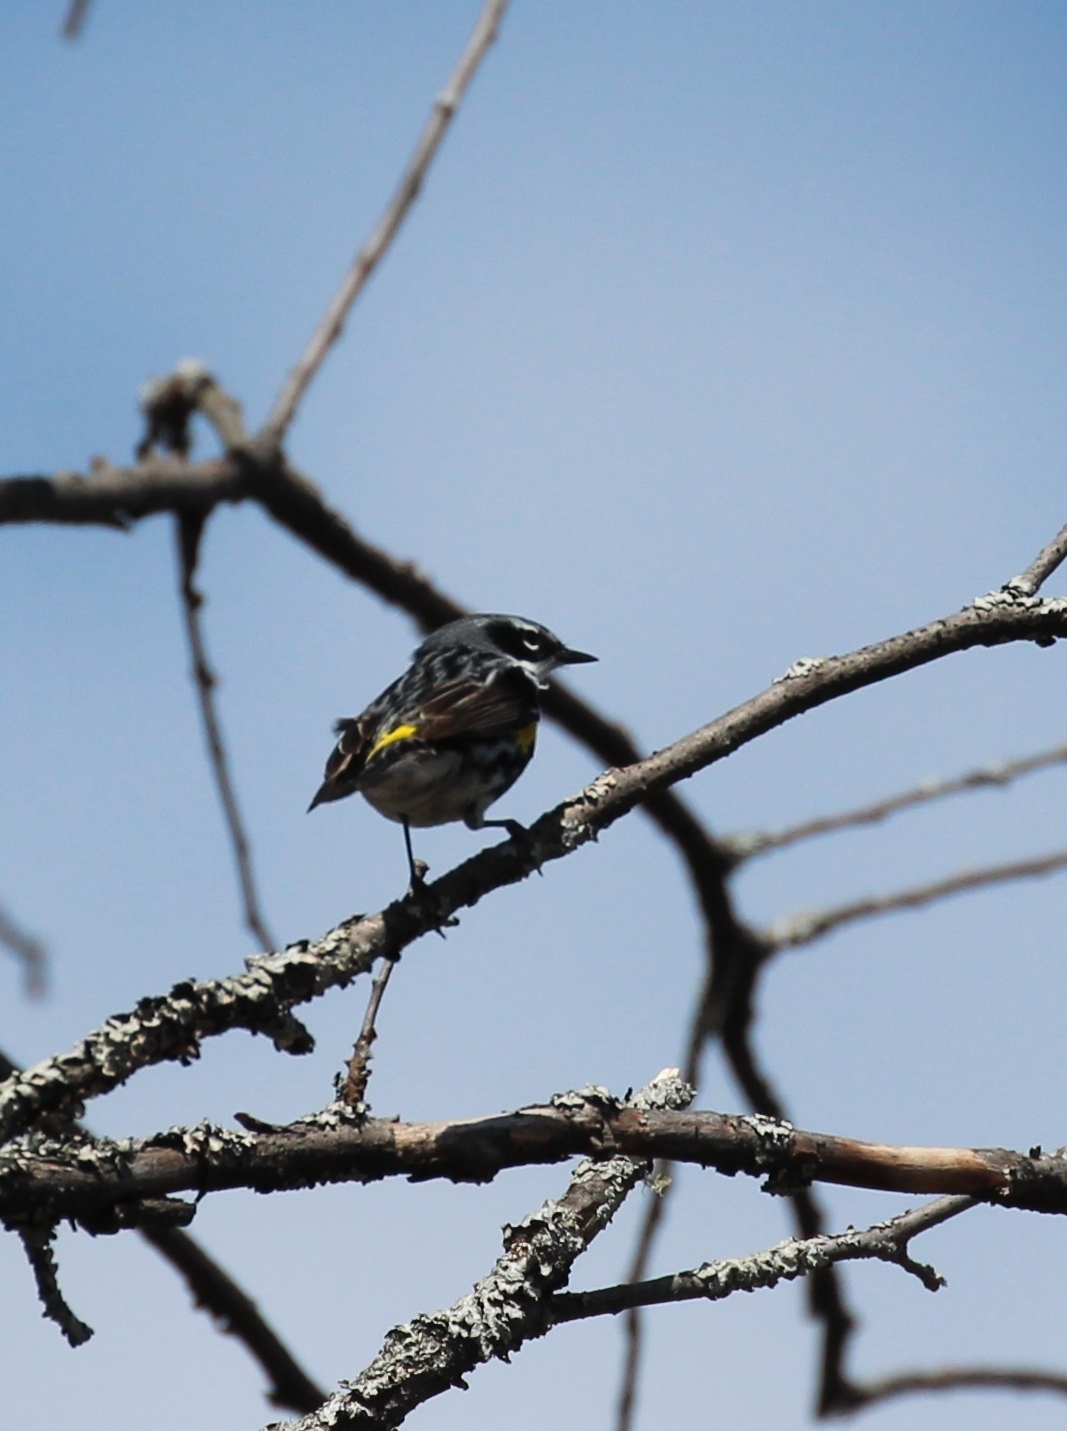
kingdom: Animalia
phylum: Chordata
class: Aves
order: Passeriformes
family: Parulidae
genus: Setophaga
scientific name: Setophaga coronata
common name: Myrtle warbler
